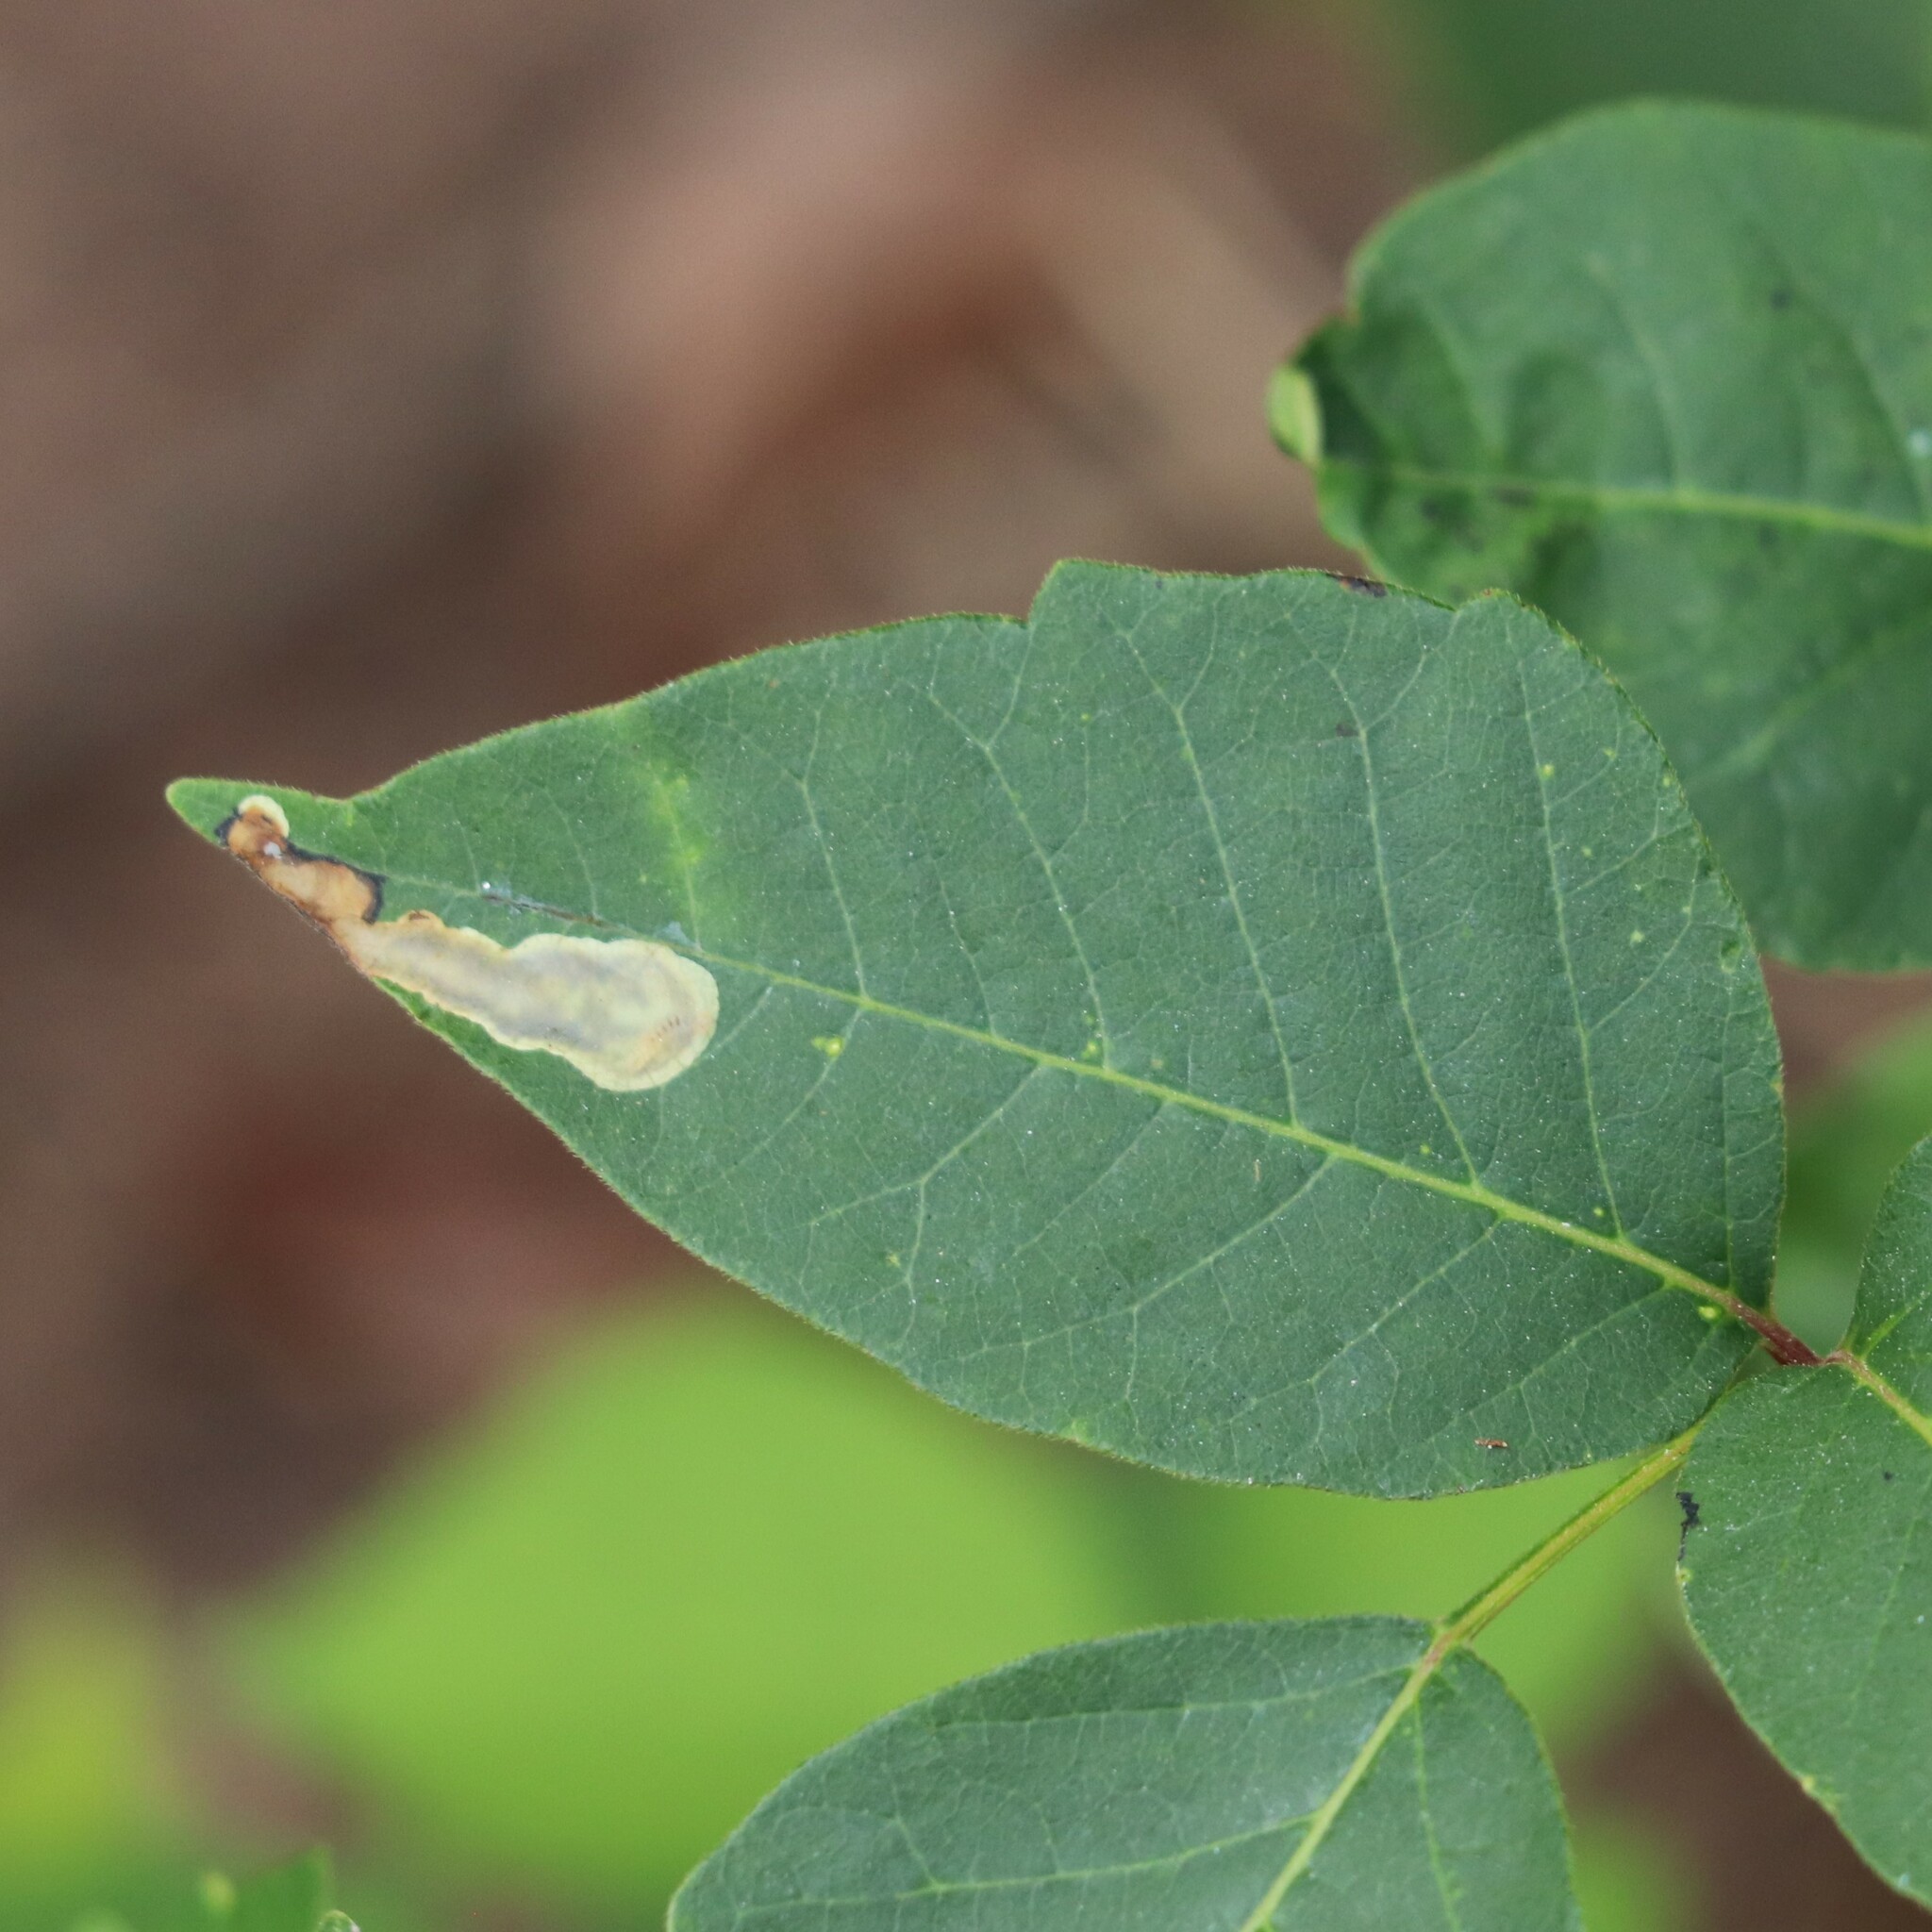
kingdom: Animalia
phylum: Arthropoda
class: Insecta
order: Lepidoptera
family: Gracillariidae
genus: Cameraria
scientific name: Cameraria guttifinitella
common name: Poison ivy leaf-miner moth
